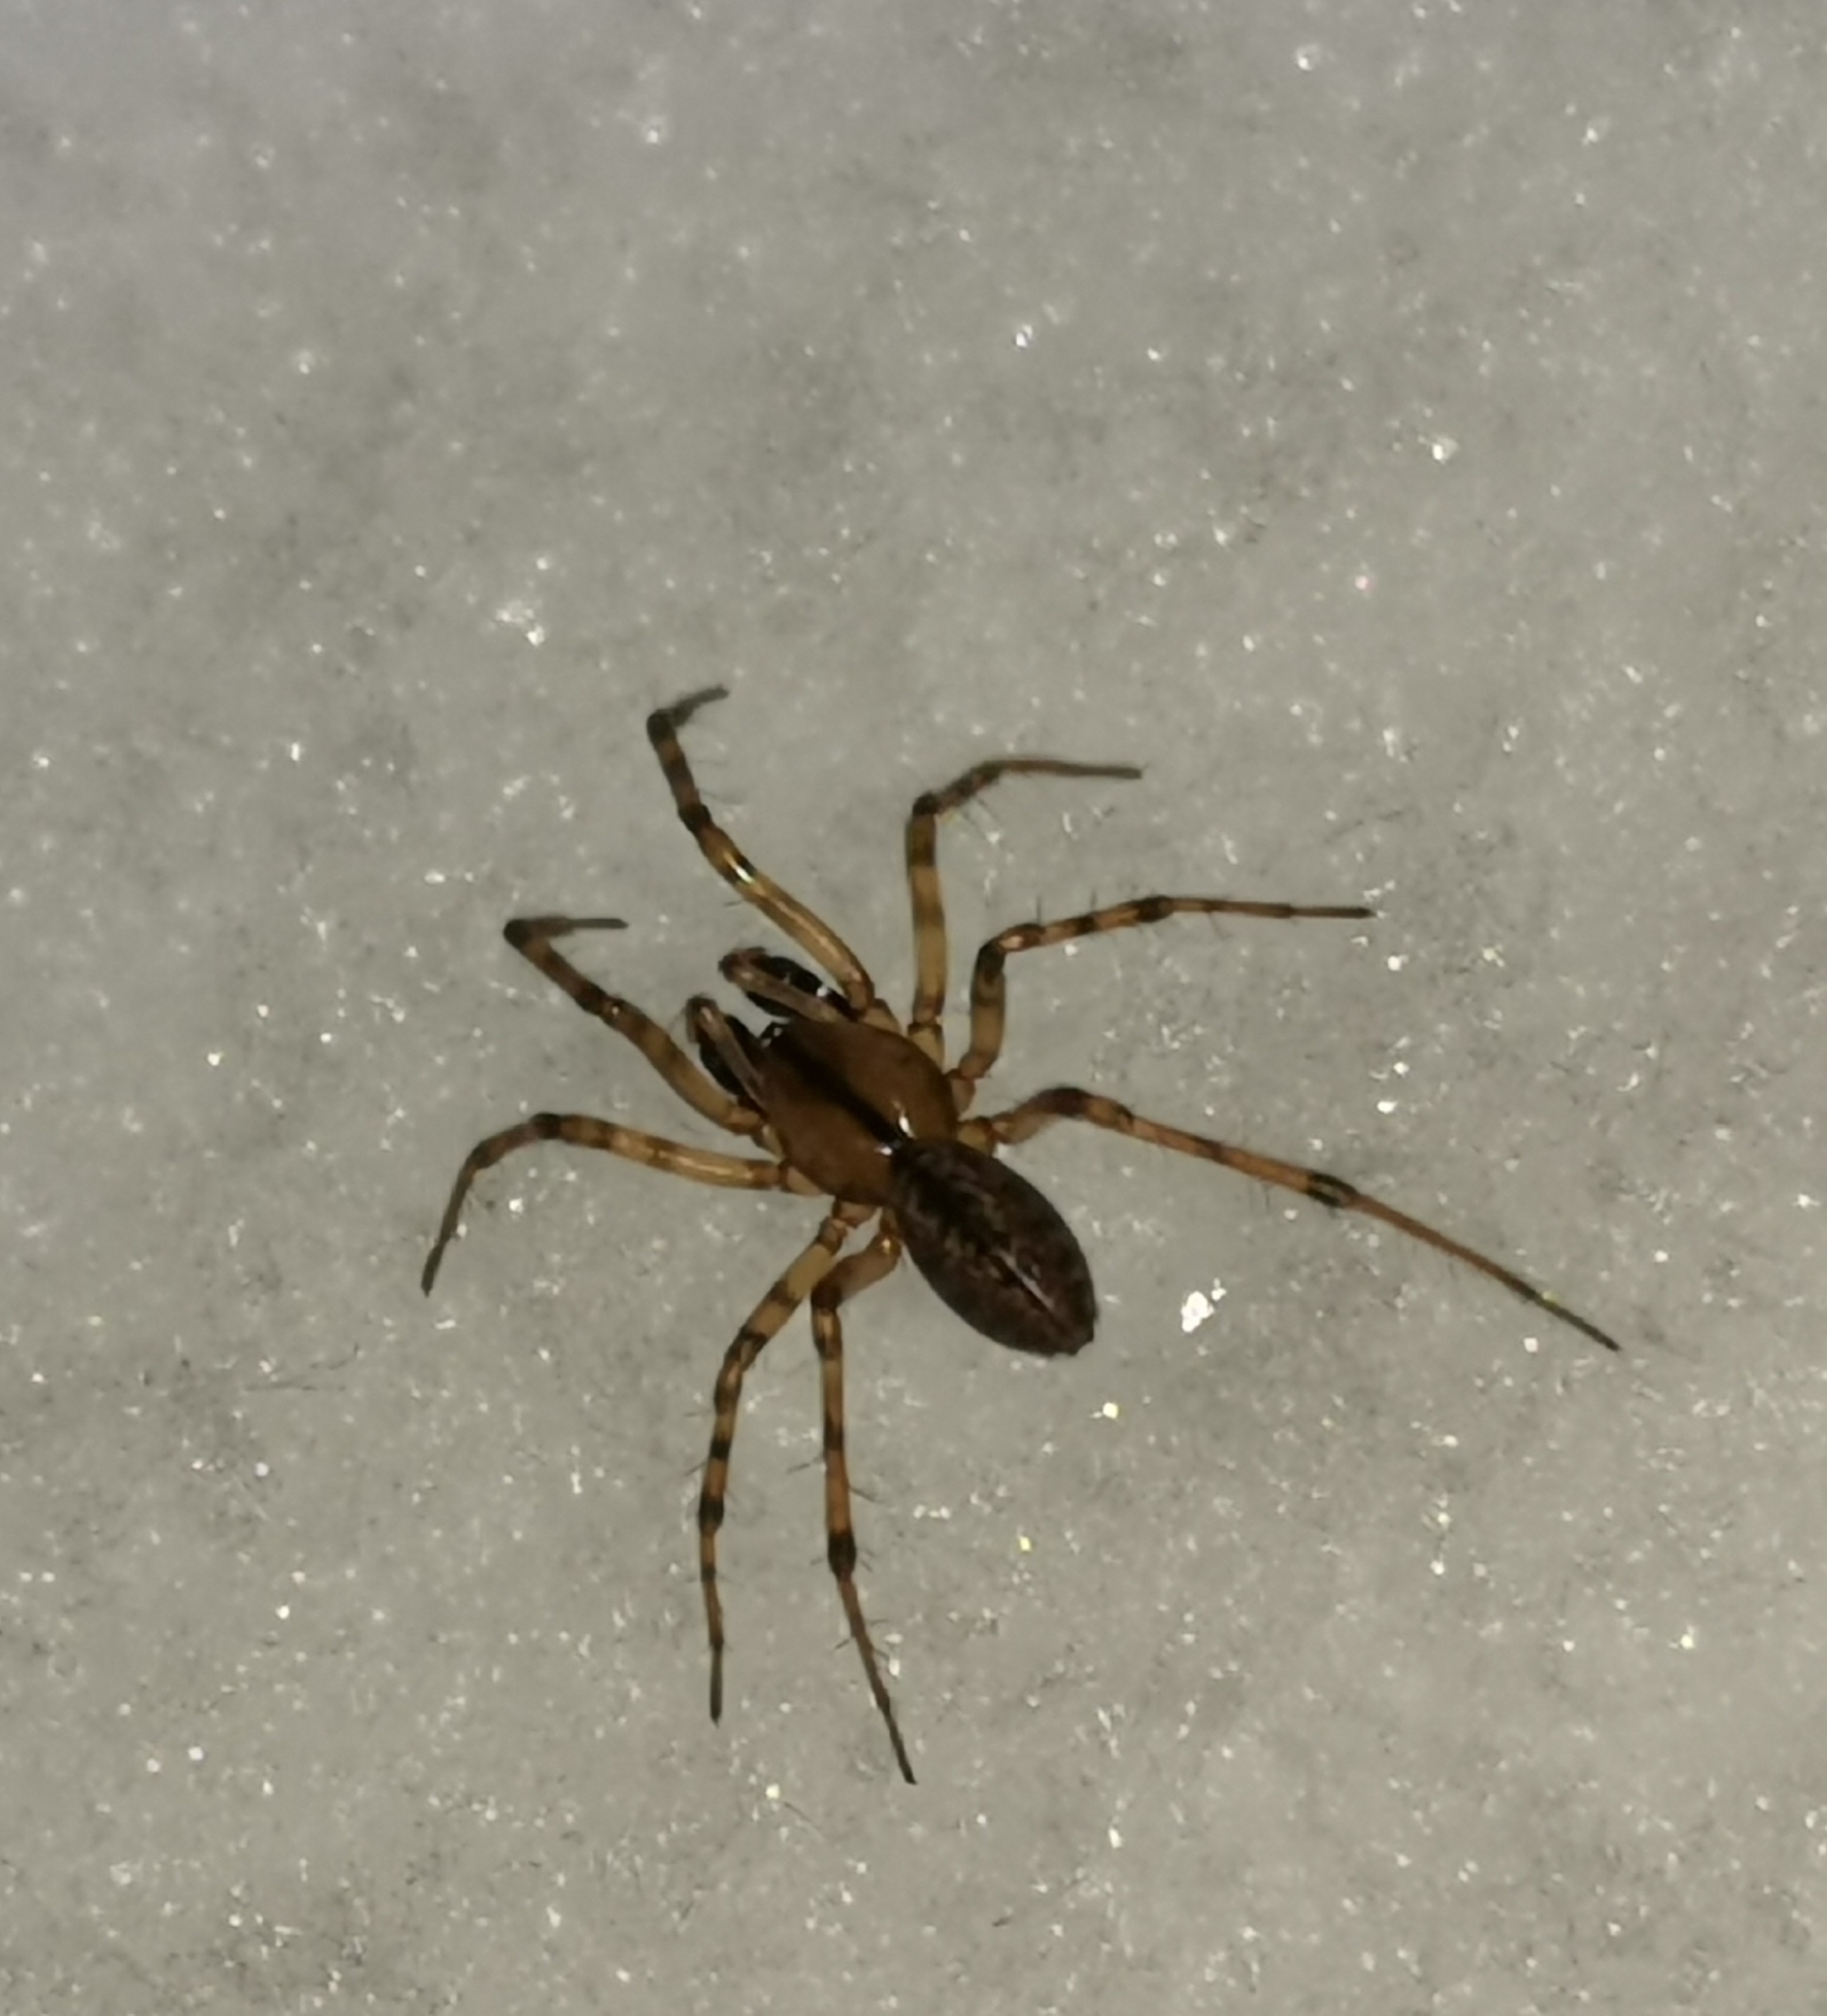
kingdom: Animalia
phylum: Arthropoda
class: Arachnida
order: Araneae
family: Linyphiidae
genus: Stemonyphantes
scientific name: Stemonyphantes lineatus
